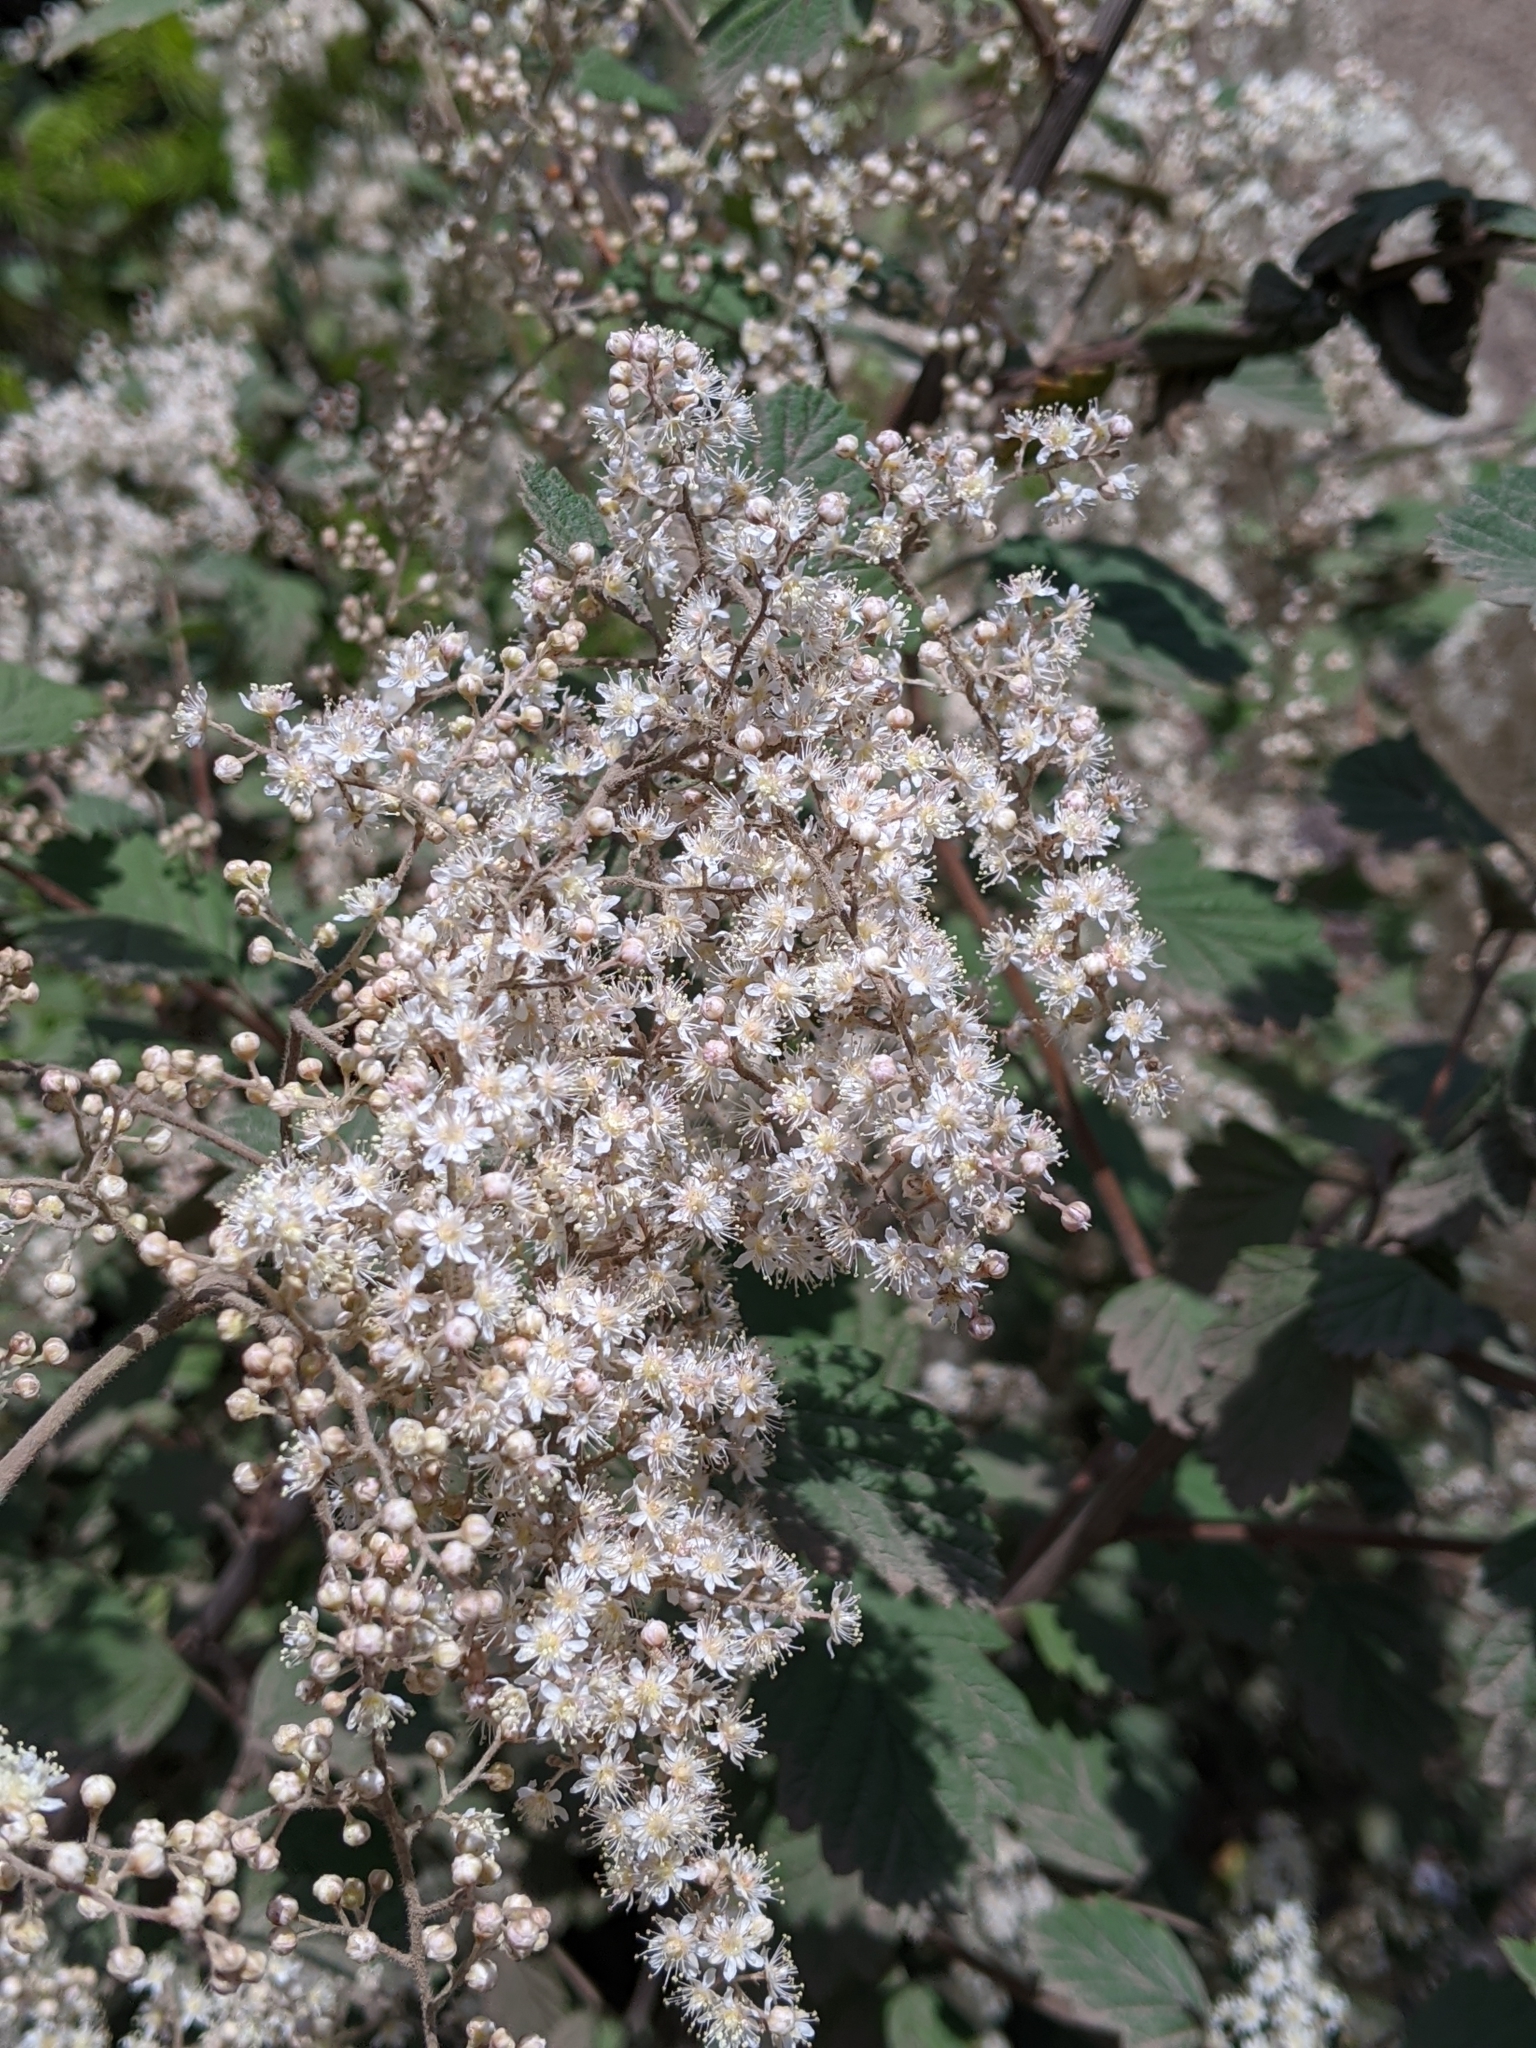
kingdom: Plantae
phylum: Tracheophyta
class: Magnoliopsida
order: Rosales
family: Rosaceae
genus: Holodiscus
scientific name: Holodiscus discolor
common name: Oceanspray
